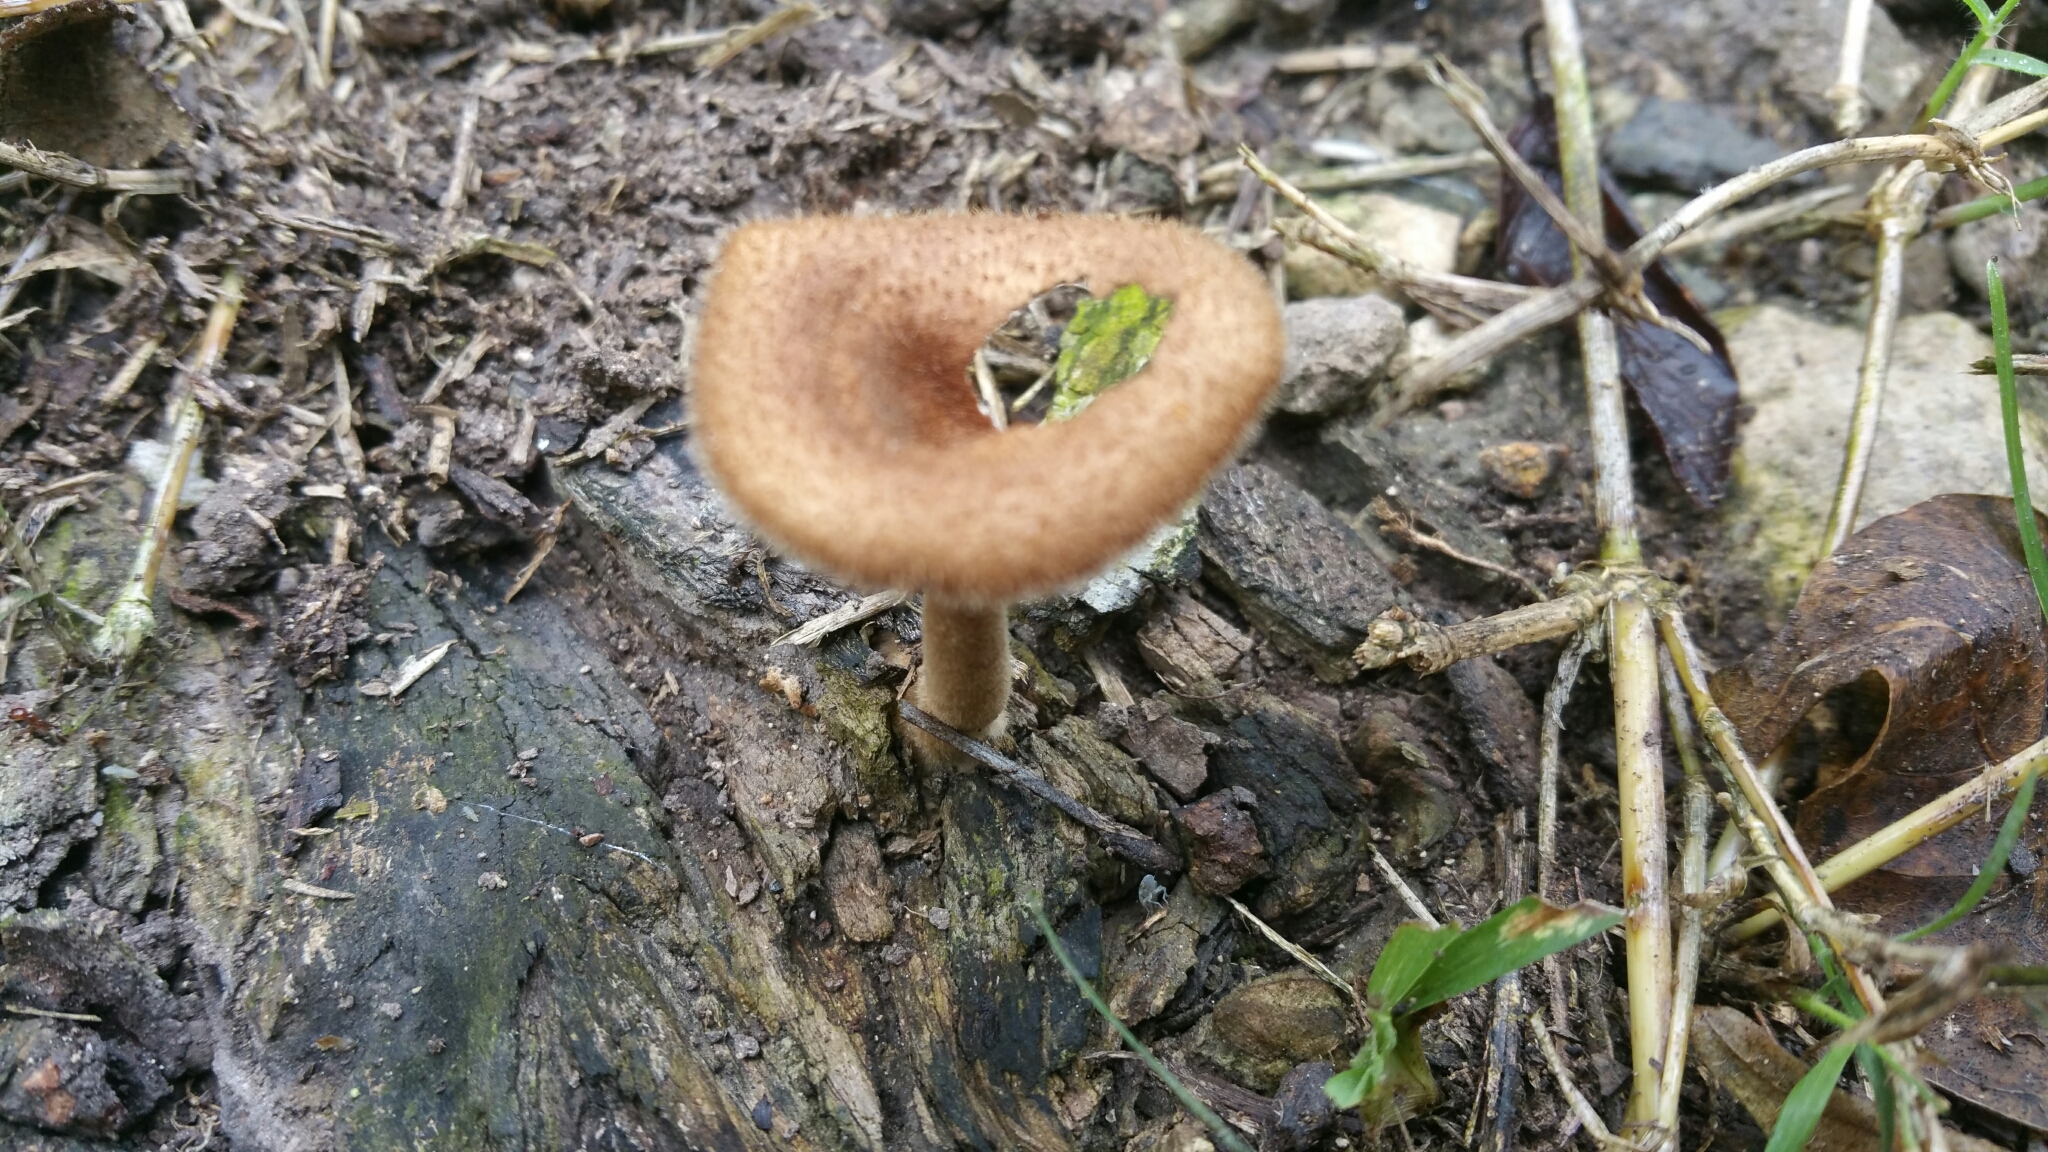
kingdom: Fungi
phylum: Basidiomycota
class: Agaricomycetes
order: Polyporales
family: Polyporaceae
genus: Lentinus
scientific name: Lentinus crinitus
